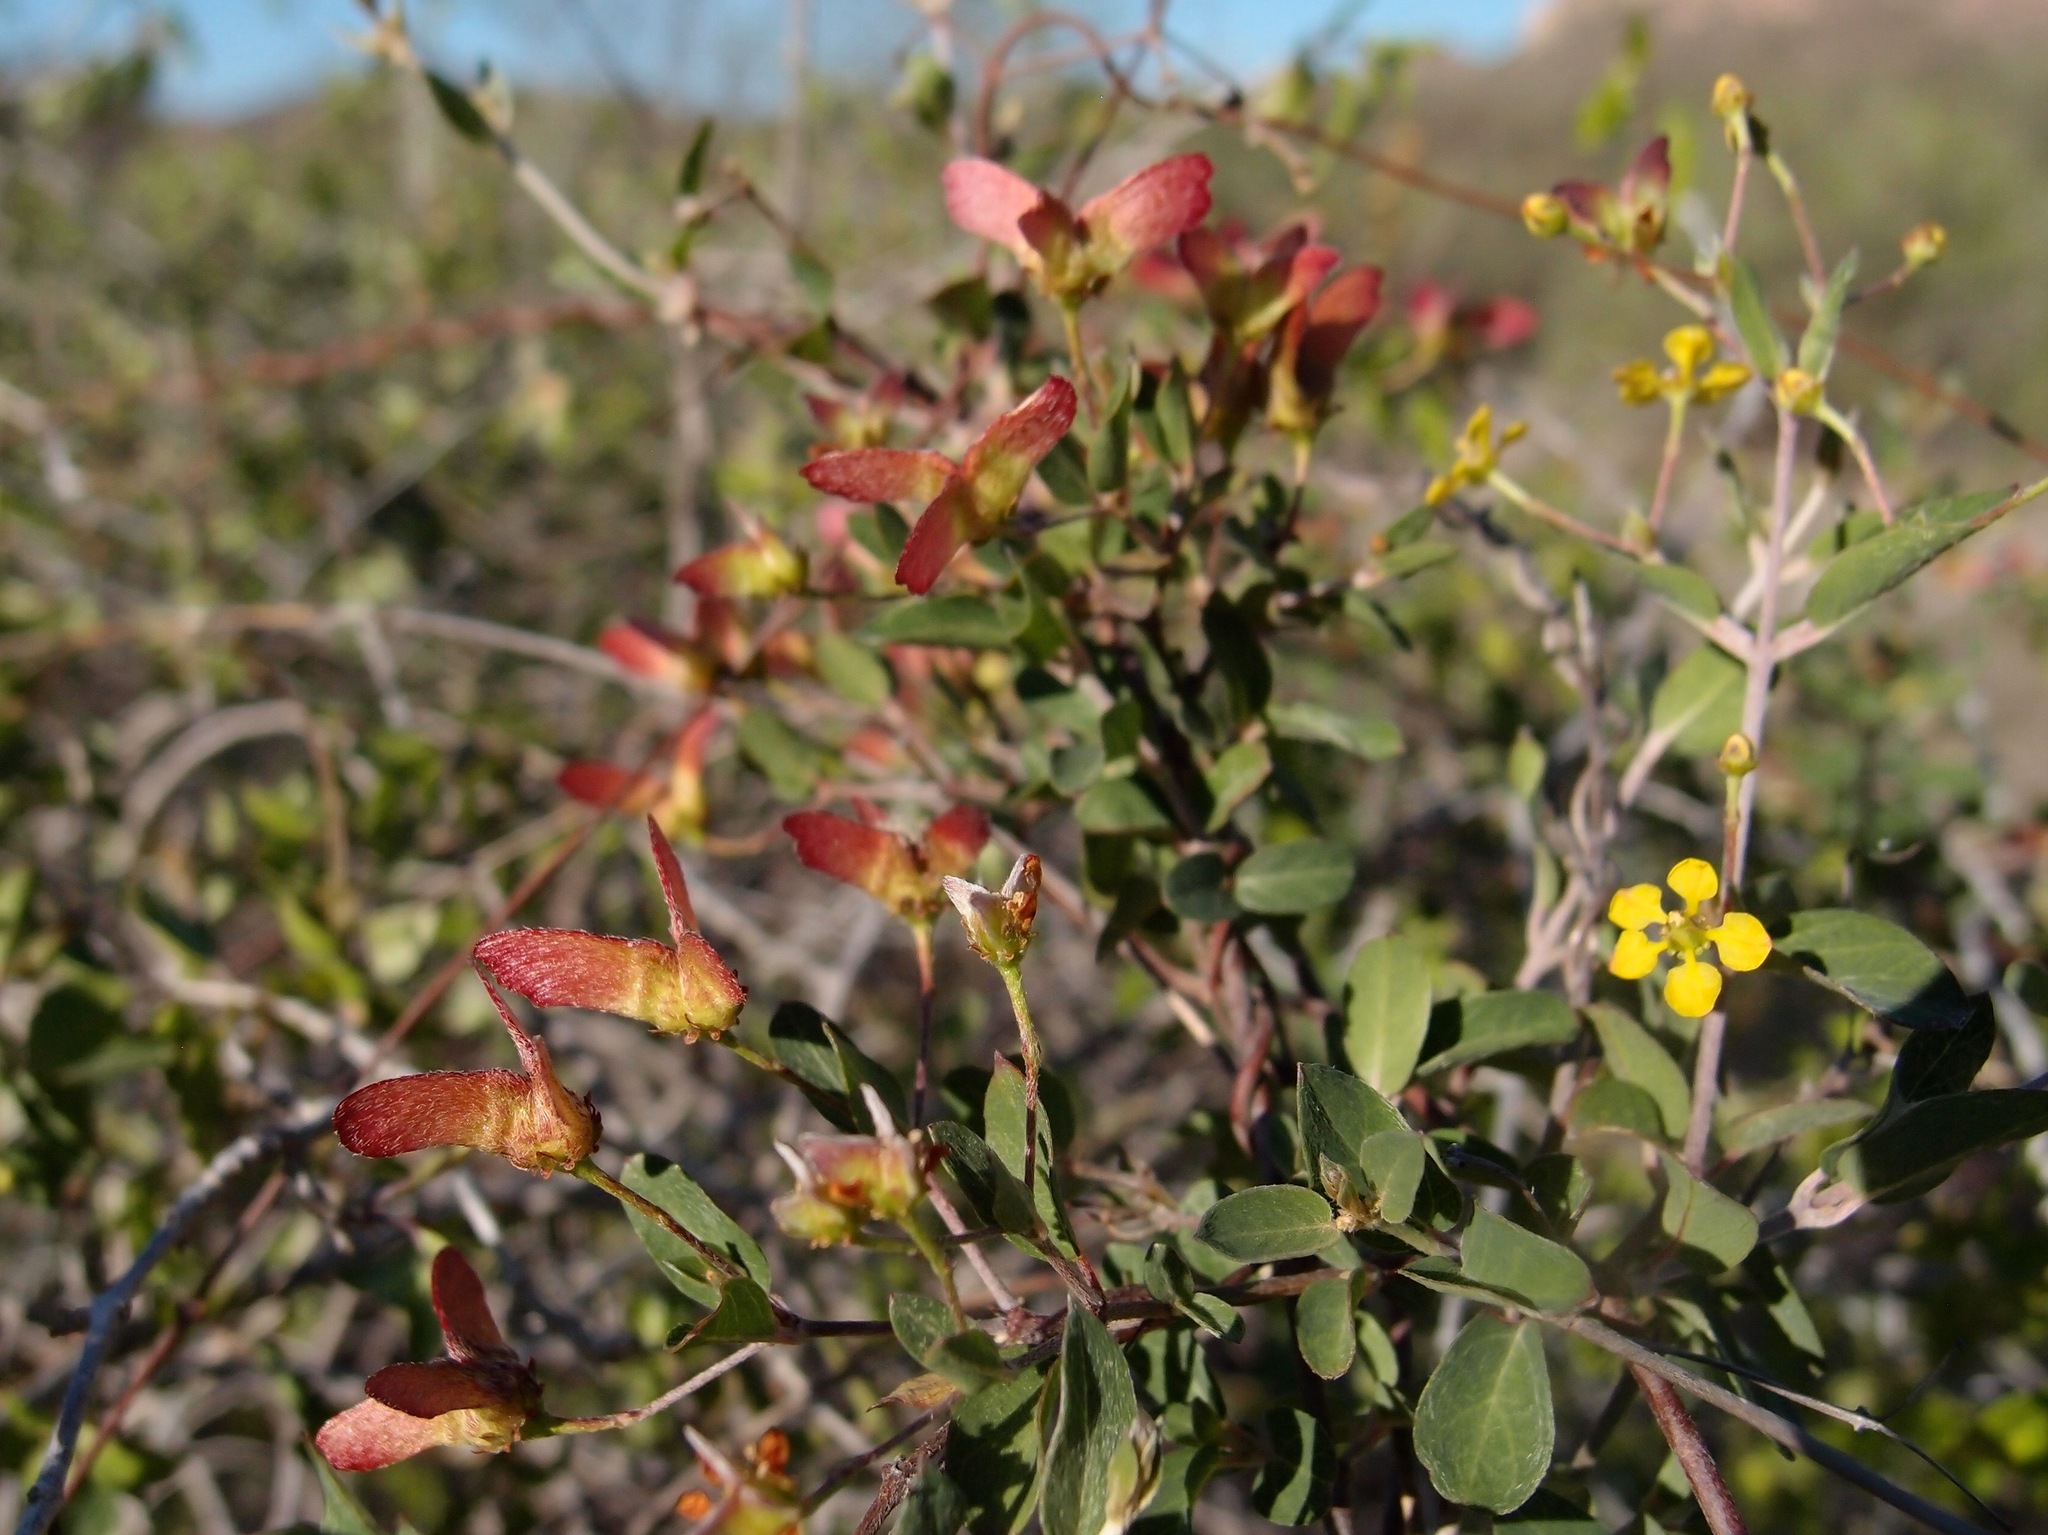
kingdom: Plantae
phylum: Tracheophyta
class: Magnoliopsida
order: Malpighiales
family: Malpighiaceae
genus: Cottsia
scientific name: Cottsia californica
